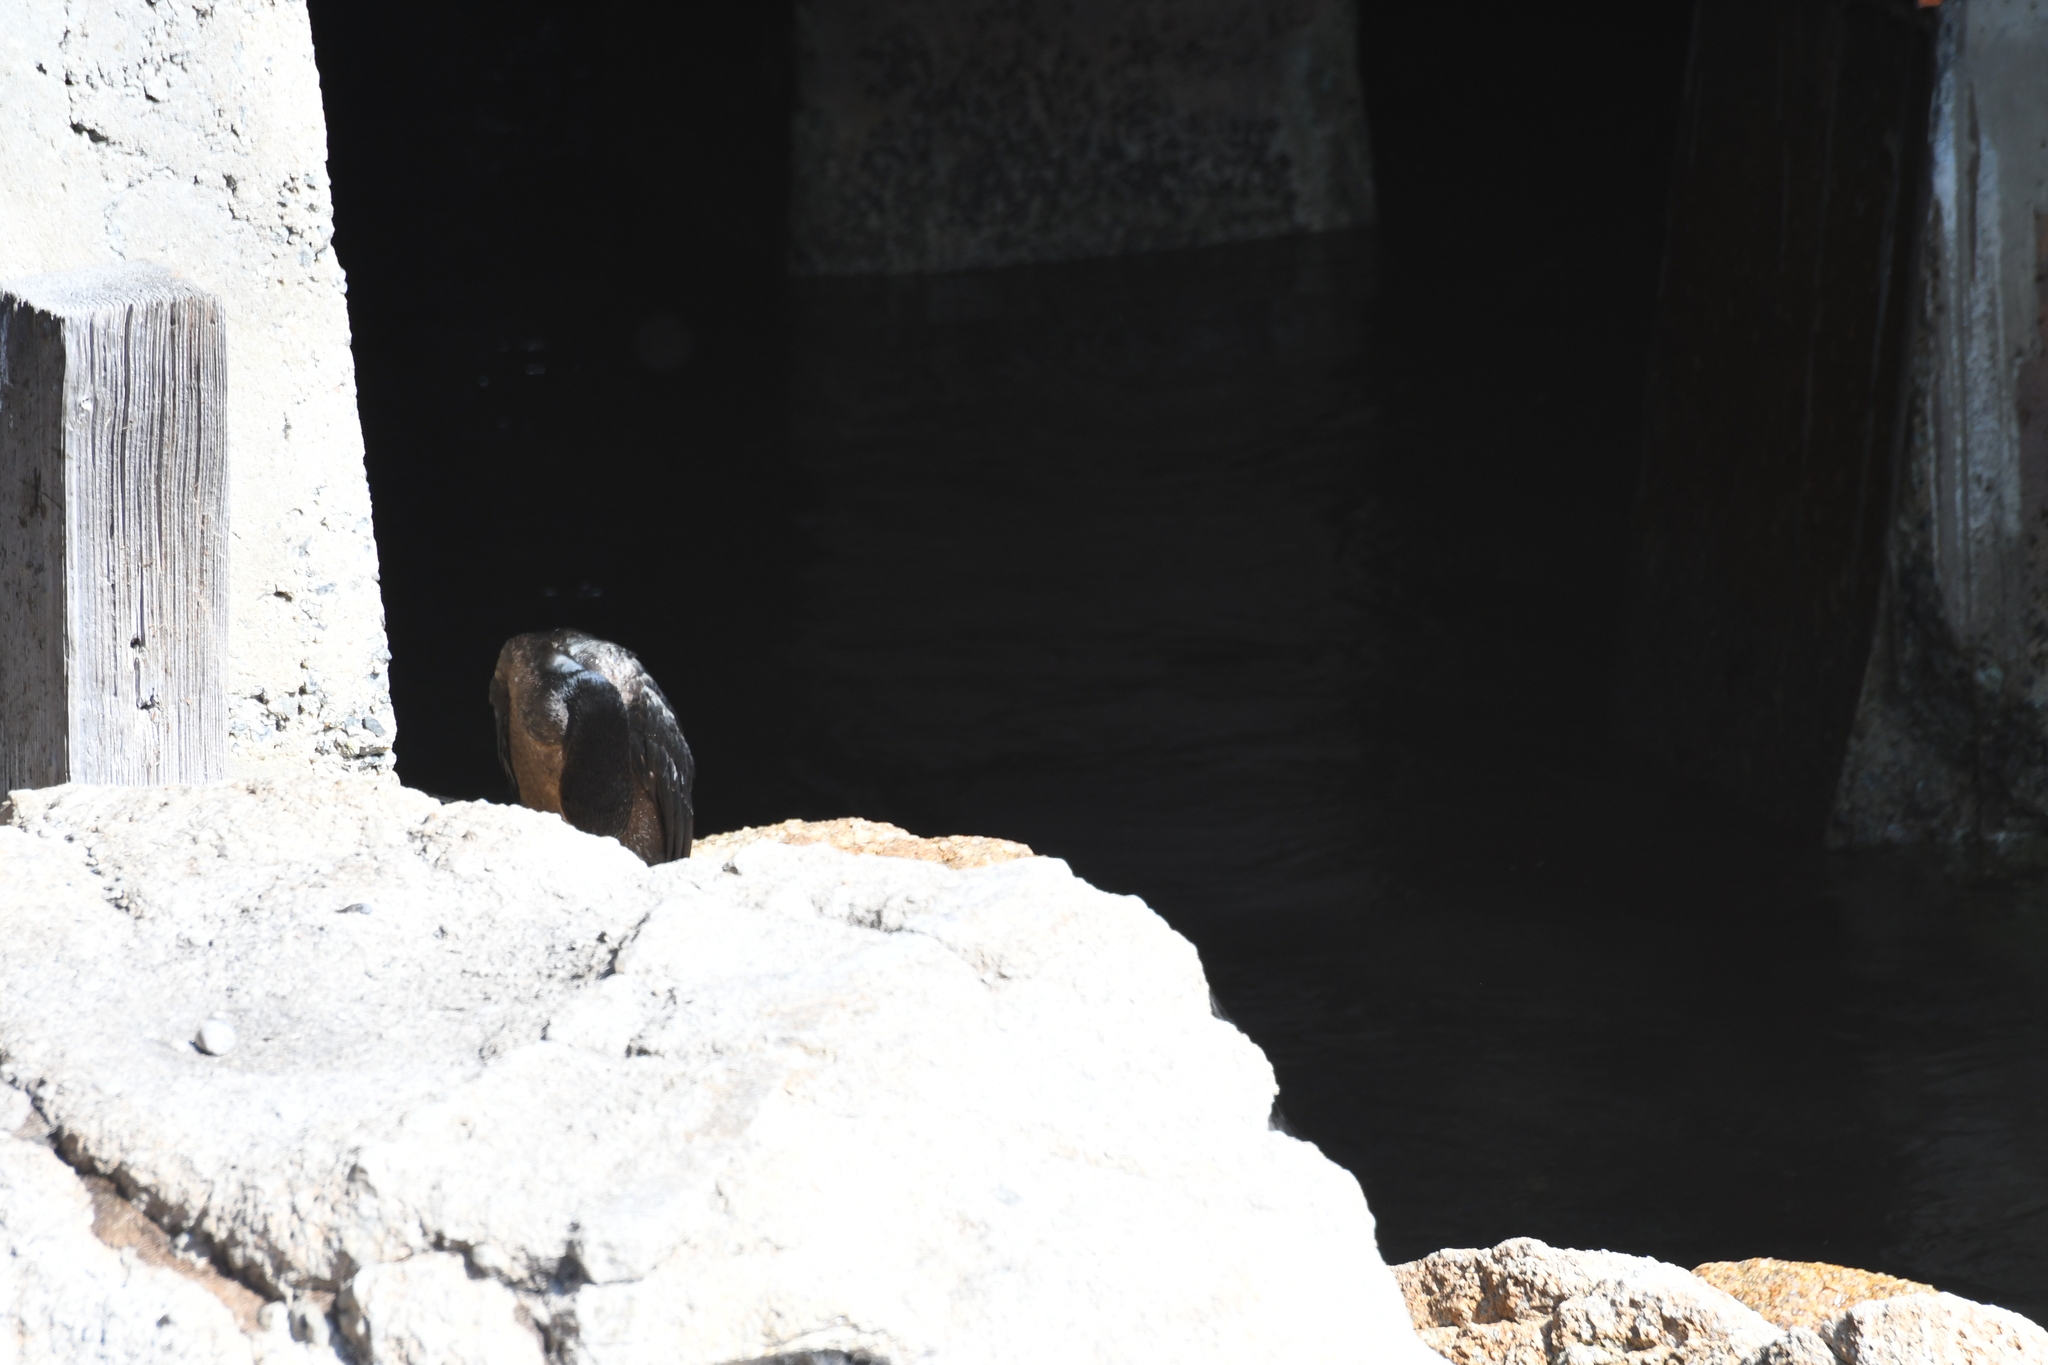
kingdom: Animalia
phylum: Chordata
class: Aves
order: Suliformes
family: Phalacrocoracidae
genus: Urile
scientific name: Urile penicillatus
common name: Brandt's cormorant
